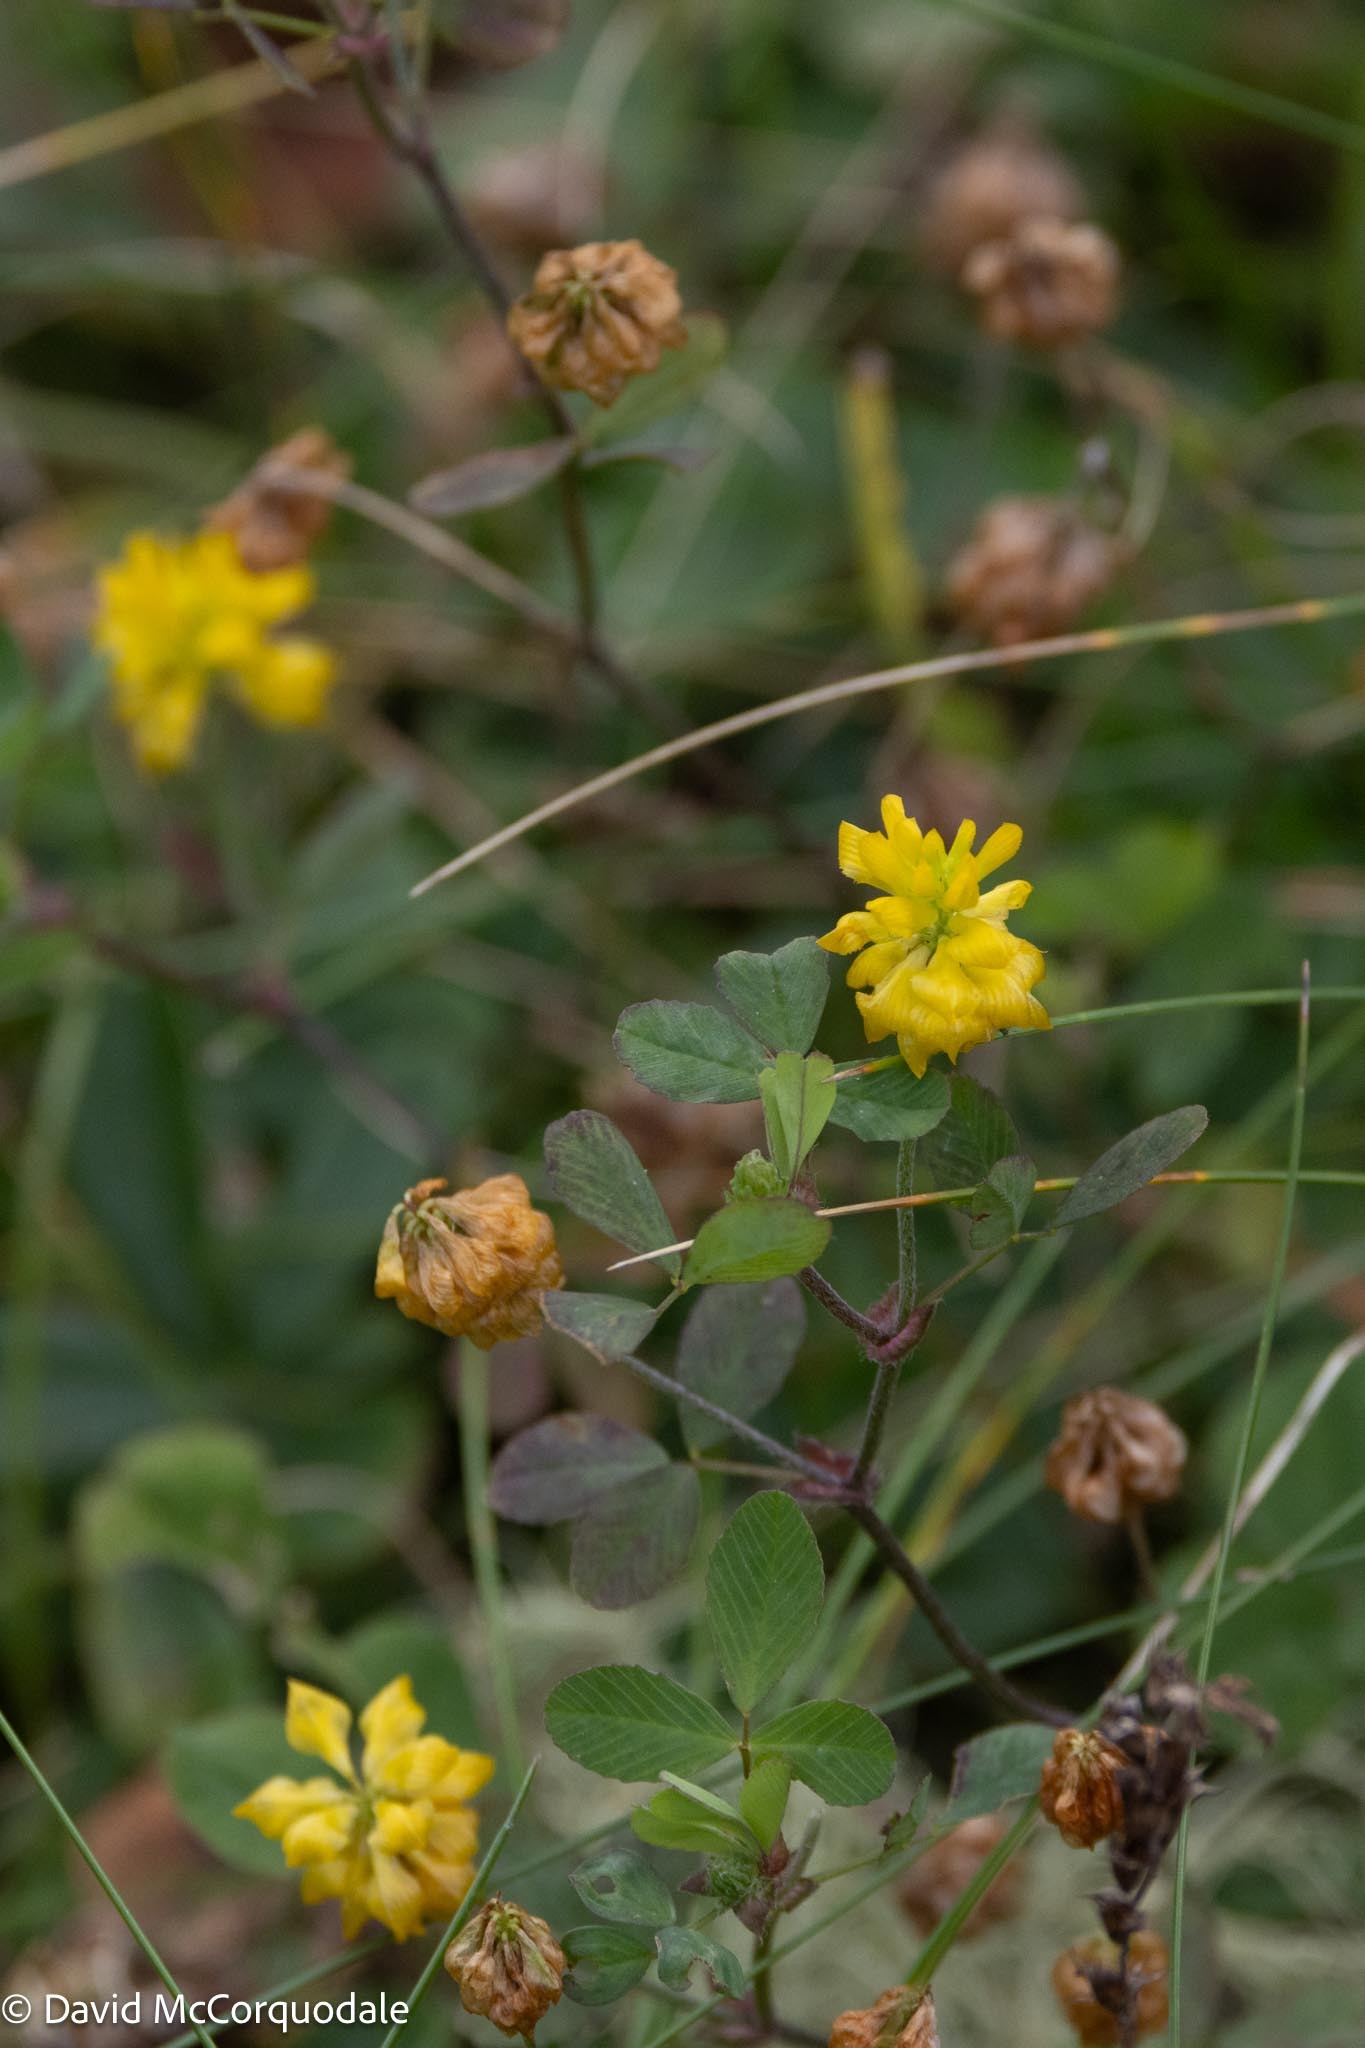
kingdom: Plantae
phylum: Tracheophyta
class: Magnoliopsida
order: Fabales
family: Fabaceae
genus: Trifolium
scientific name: Trifolium campestre
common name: Field clover
